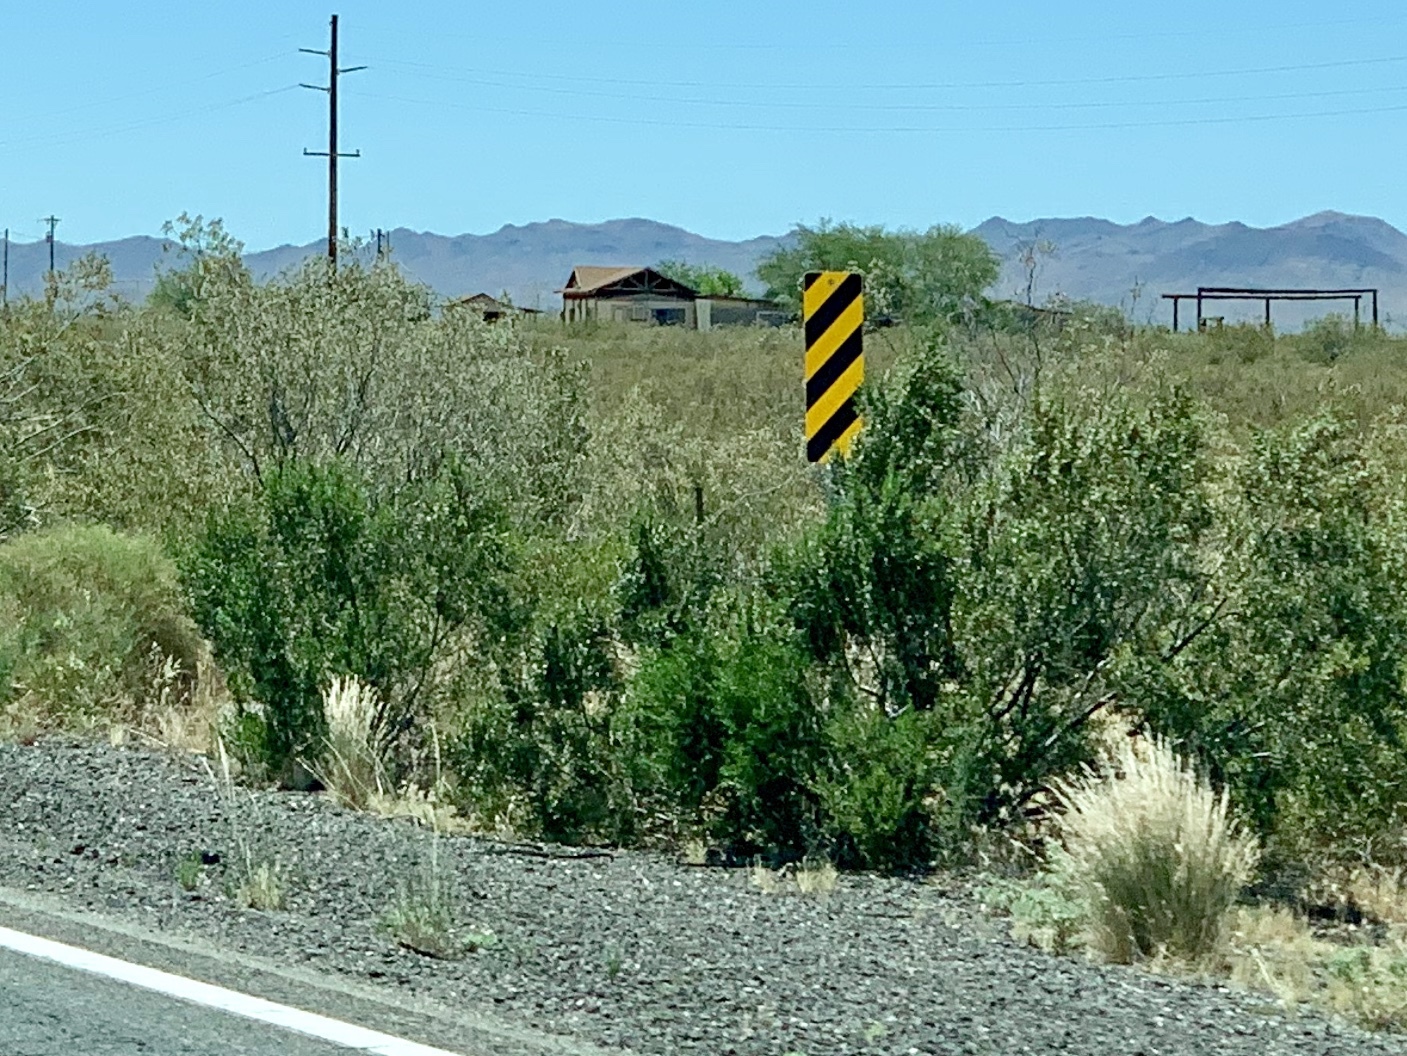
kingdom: Plantae
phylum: Tracheophyta
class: Magnoliopsida
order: Zygophyllales
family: Zygophyllaceae
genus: Larrea
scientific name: Larrea tridentata
